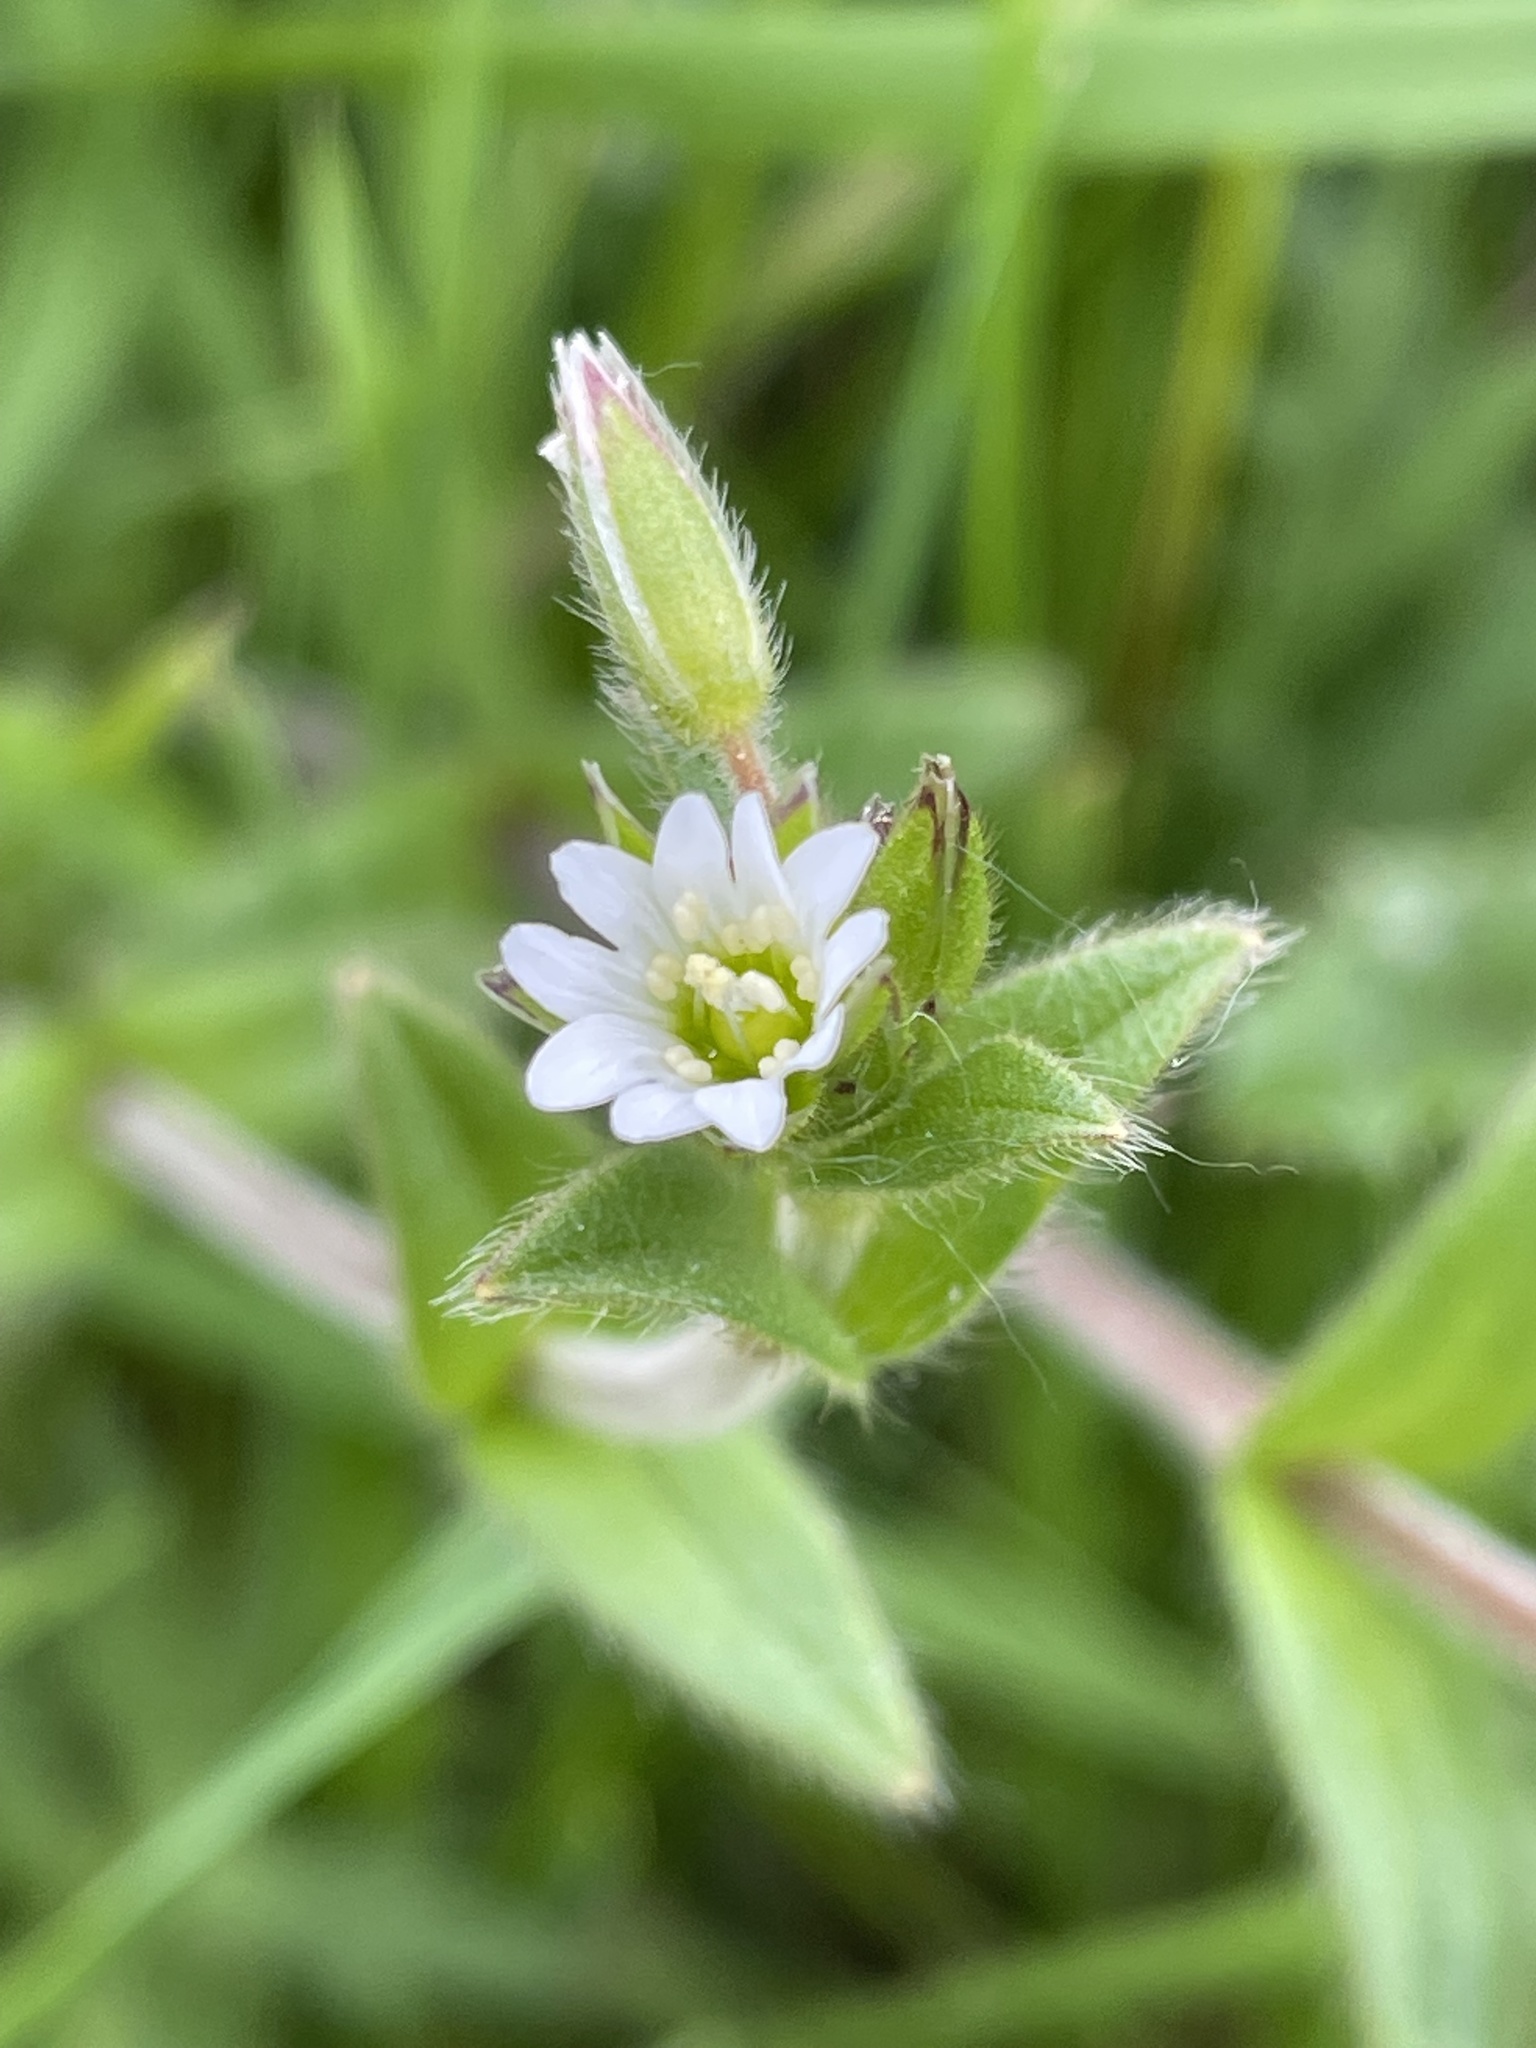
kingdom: Plantae
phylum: Tracheophyta
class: Magnoliopsida
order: Caryophyllales
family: Caryophyllaceae
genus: Cerastium
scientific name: Cerastium fontanum
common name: Common mouse-ear
